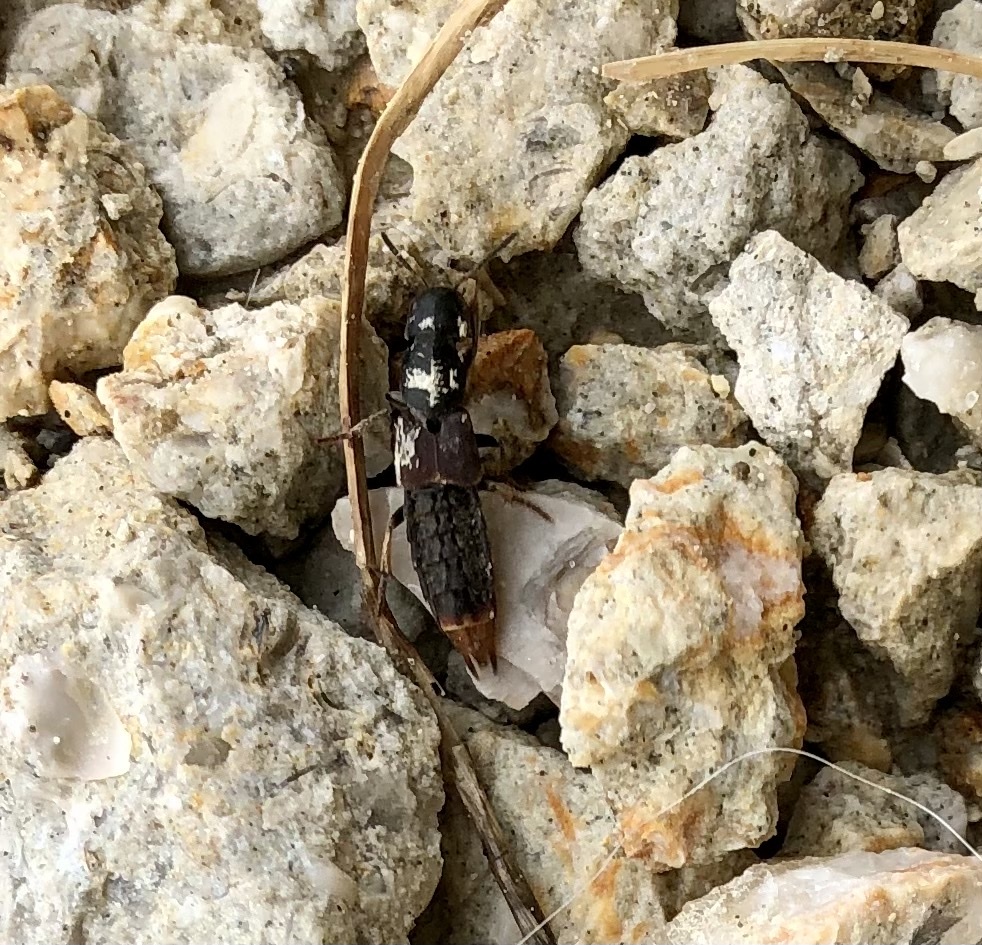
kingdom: Animalia
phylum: Arthropoda
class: Insecta
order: Coleoptera
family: Staphylinidae
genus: Platydracus
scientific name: Platydracus mysticus
